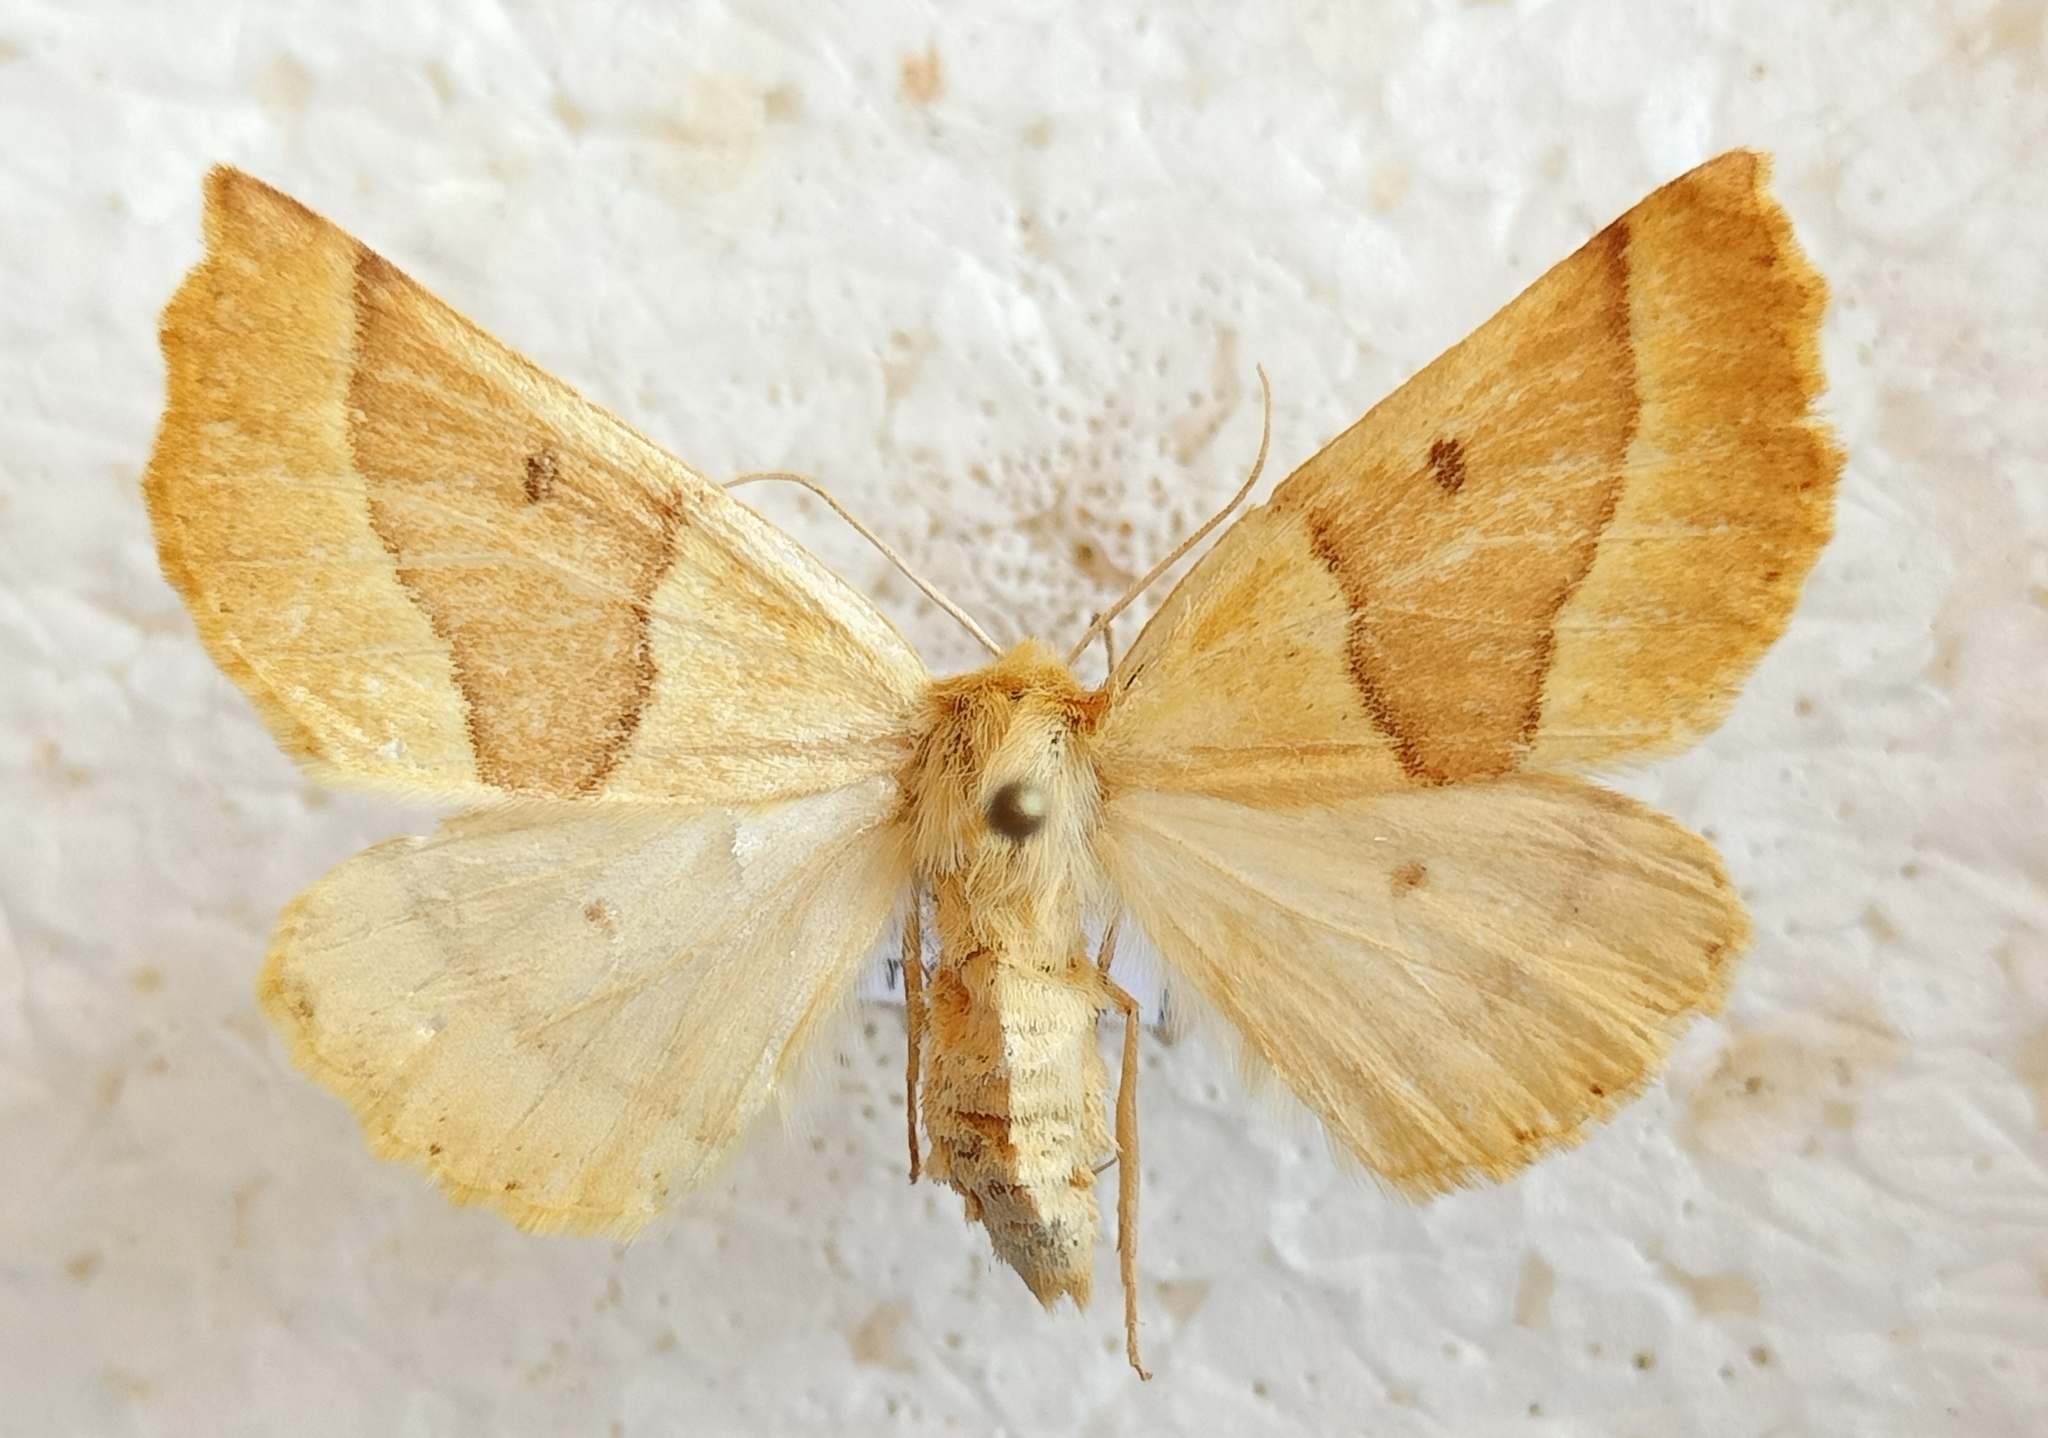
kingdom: Animalia
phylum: Arthropoda
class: Insecta
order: Lepidoptera
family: Geometridae
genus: Crocallis
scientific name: Crocallis elinguaria
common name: Scalloped oak
